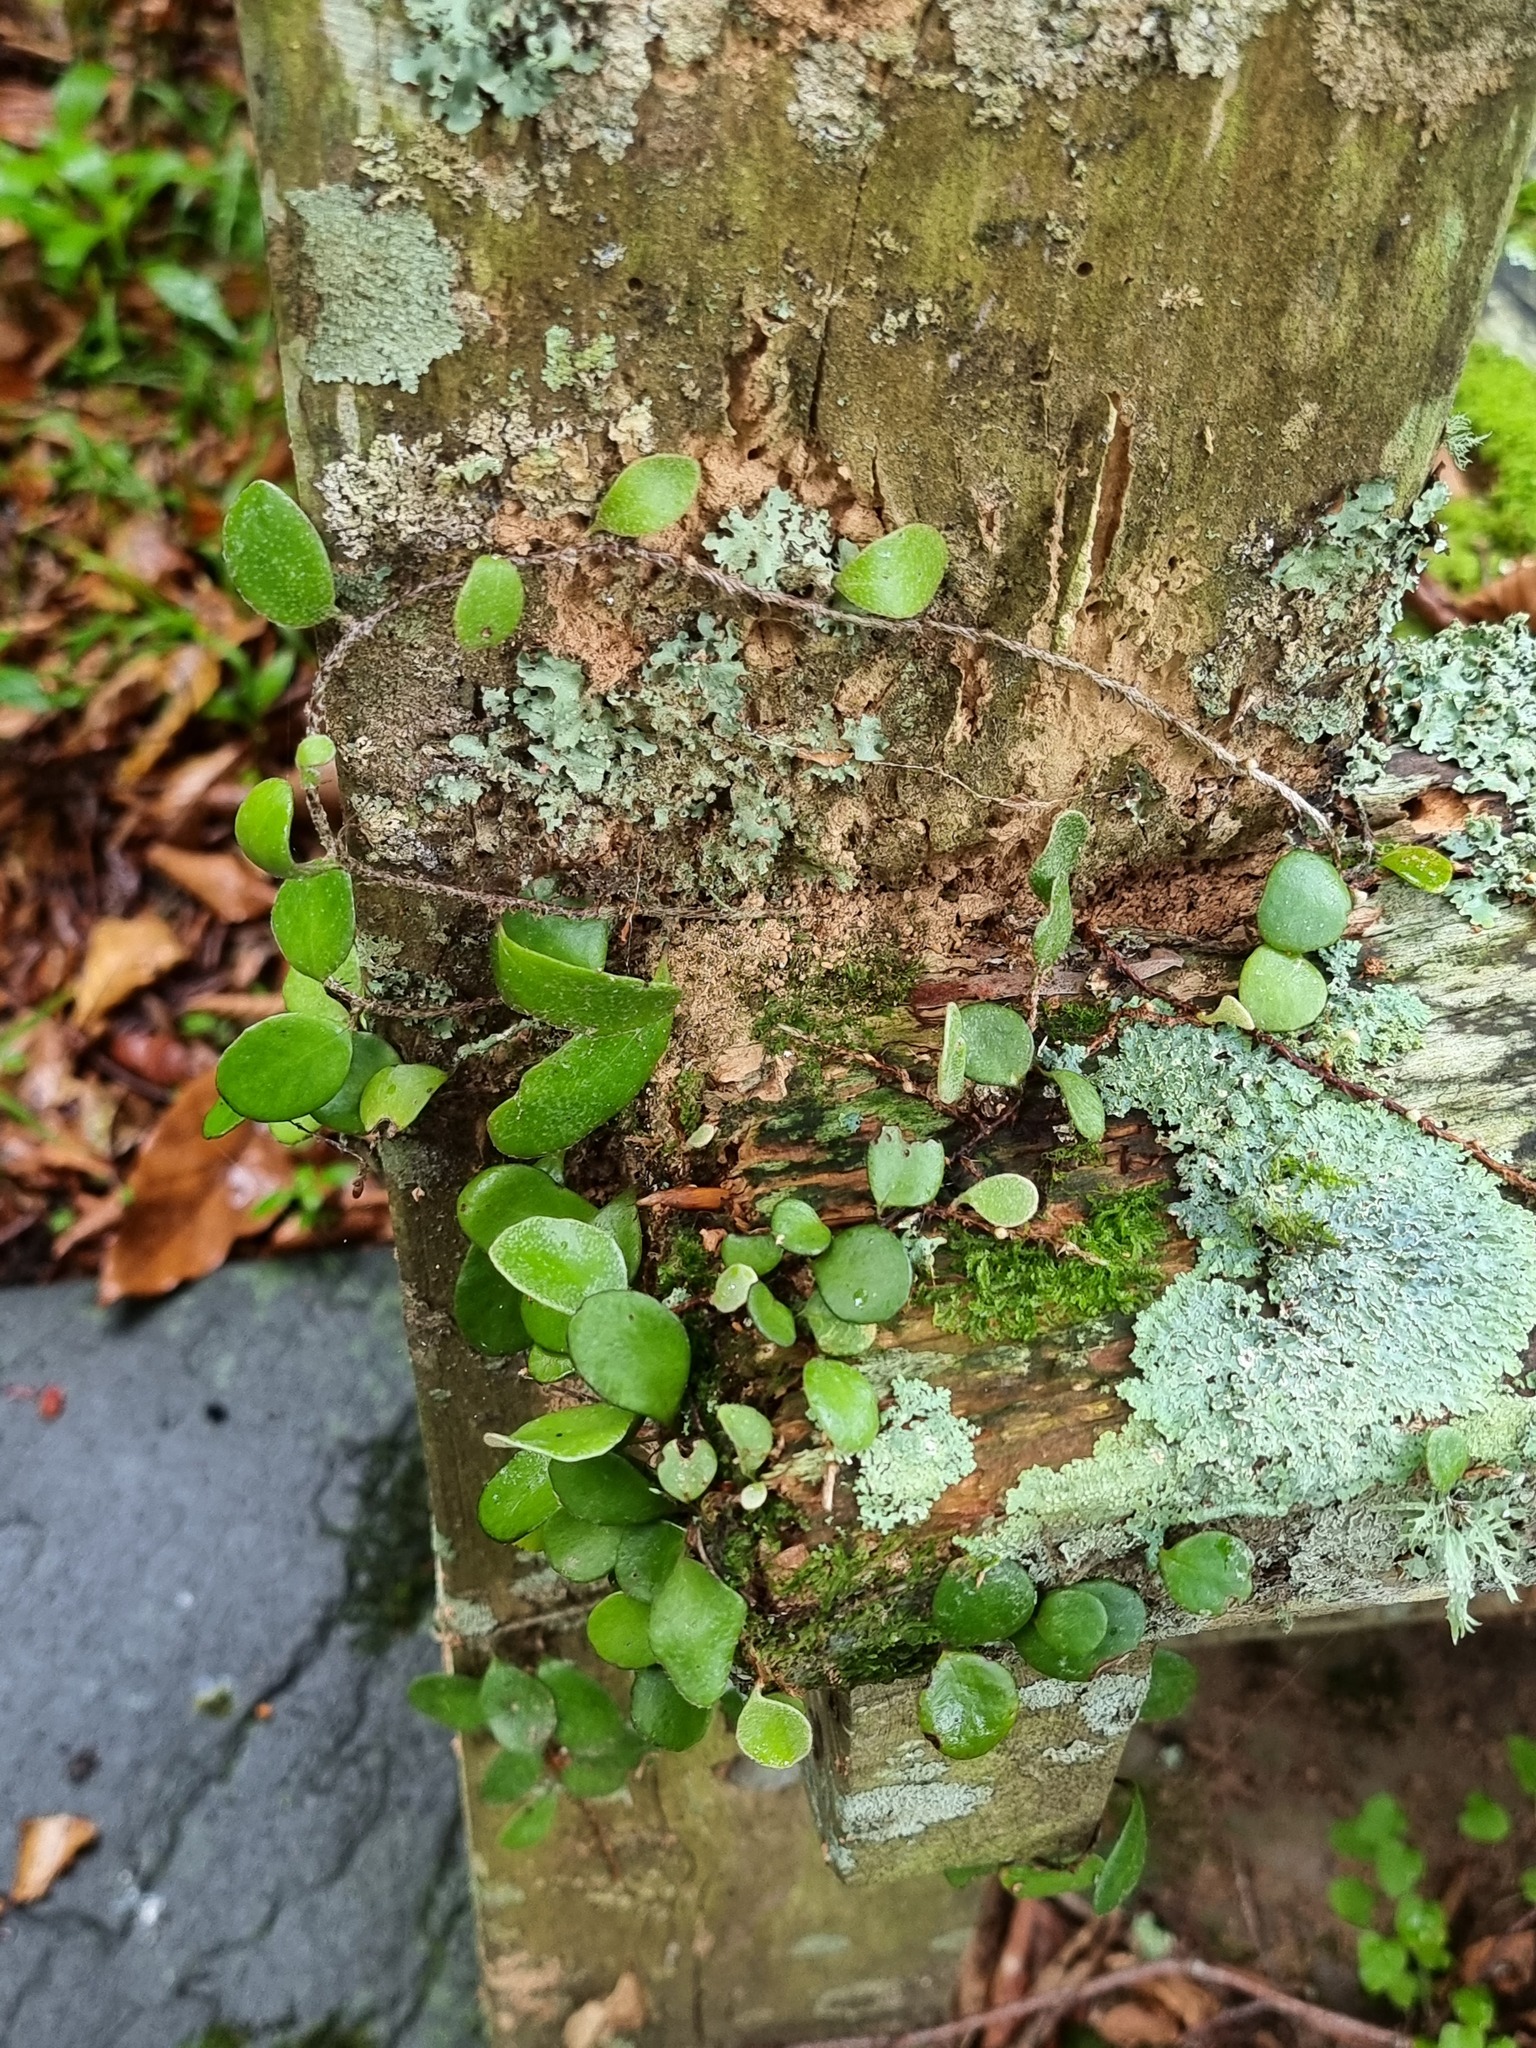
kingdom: Plantae
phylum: Tracheophyta
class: Polypodiopsida
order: Polypodiales
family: Polypodiaceae
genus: Pyrrosia
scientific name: Pyrrosia eleagnifolia
